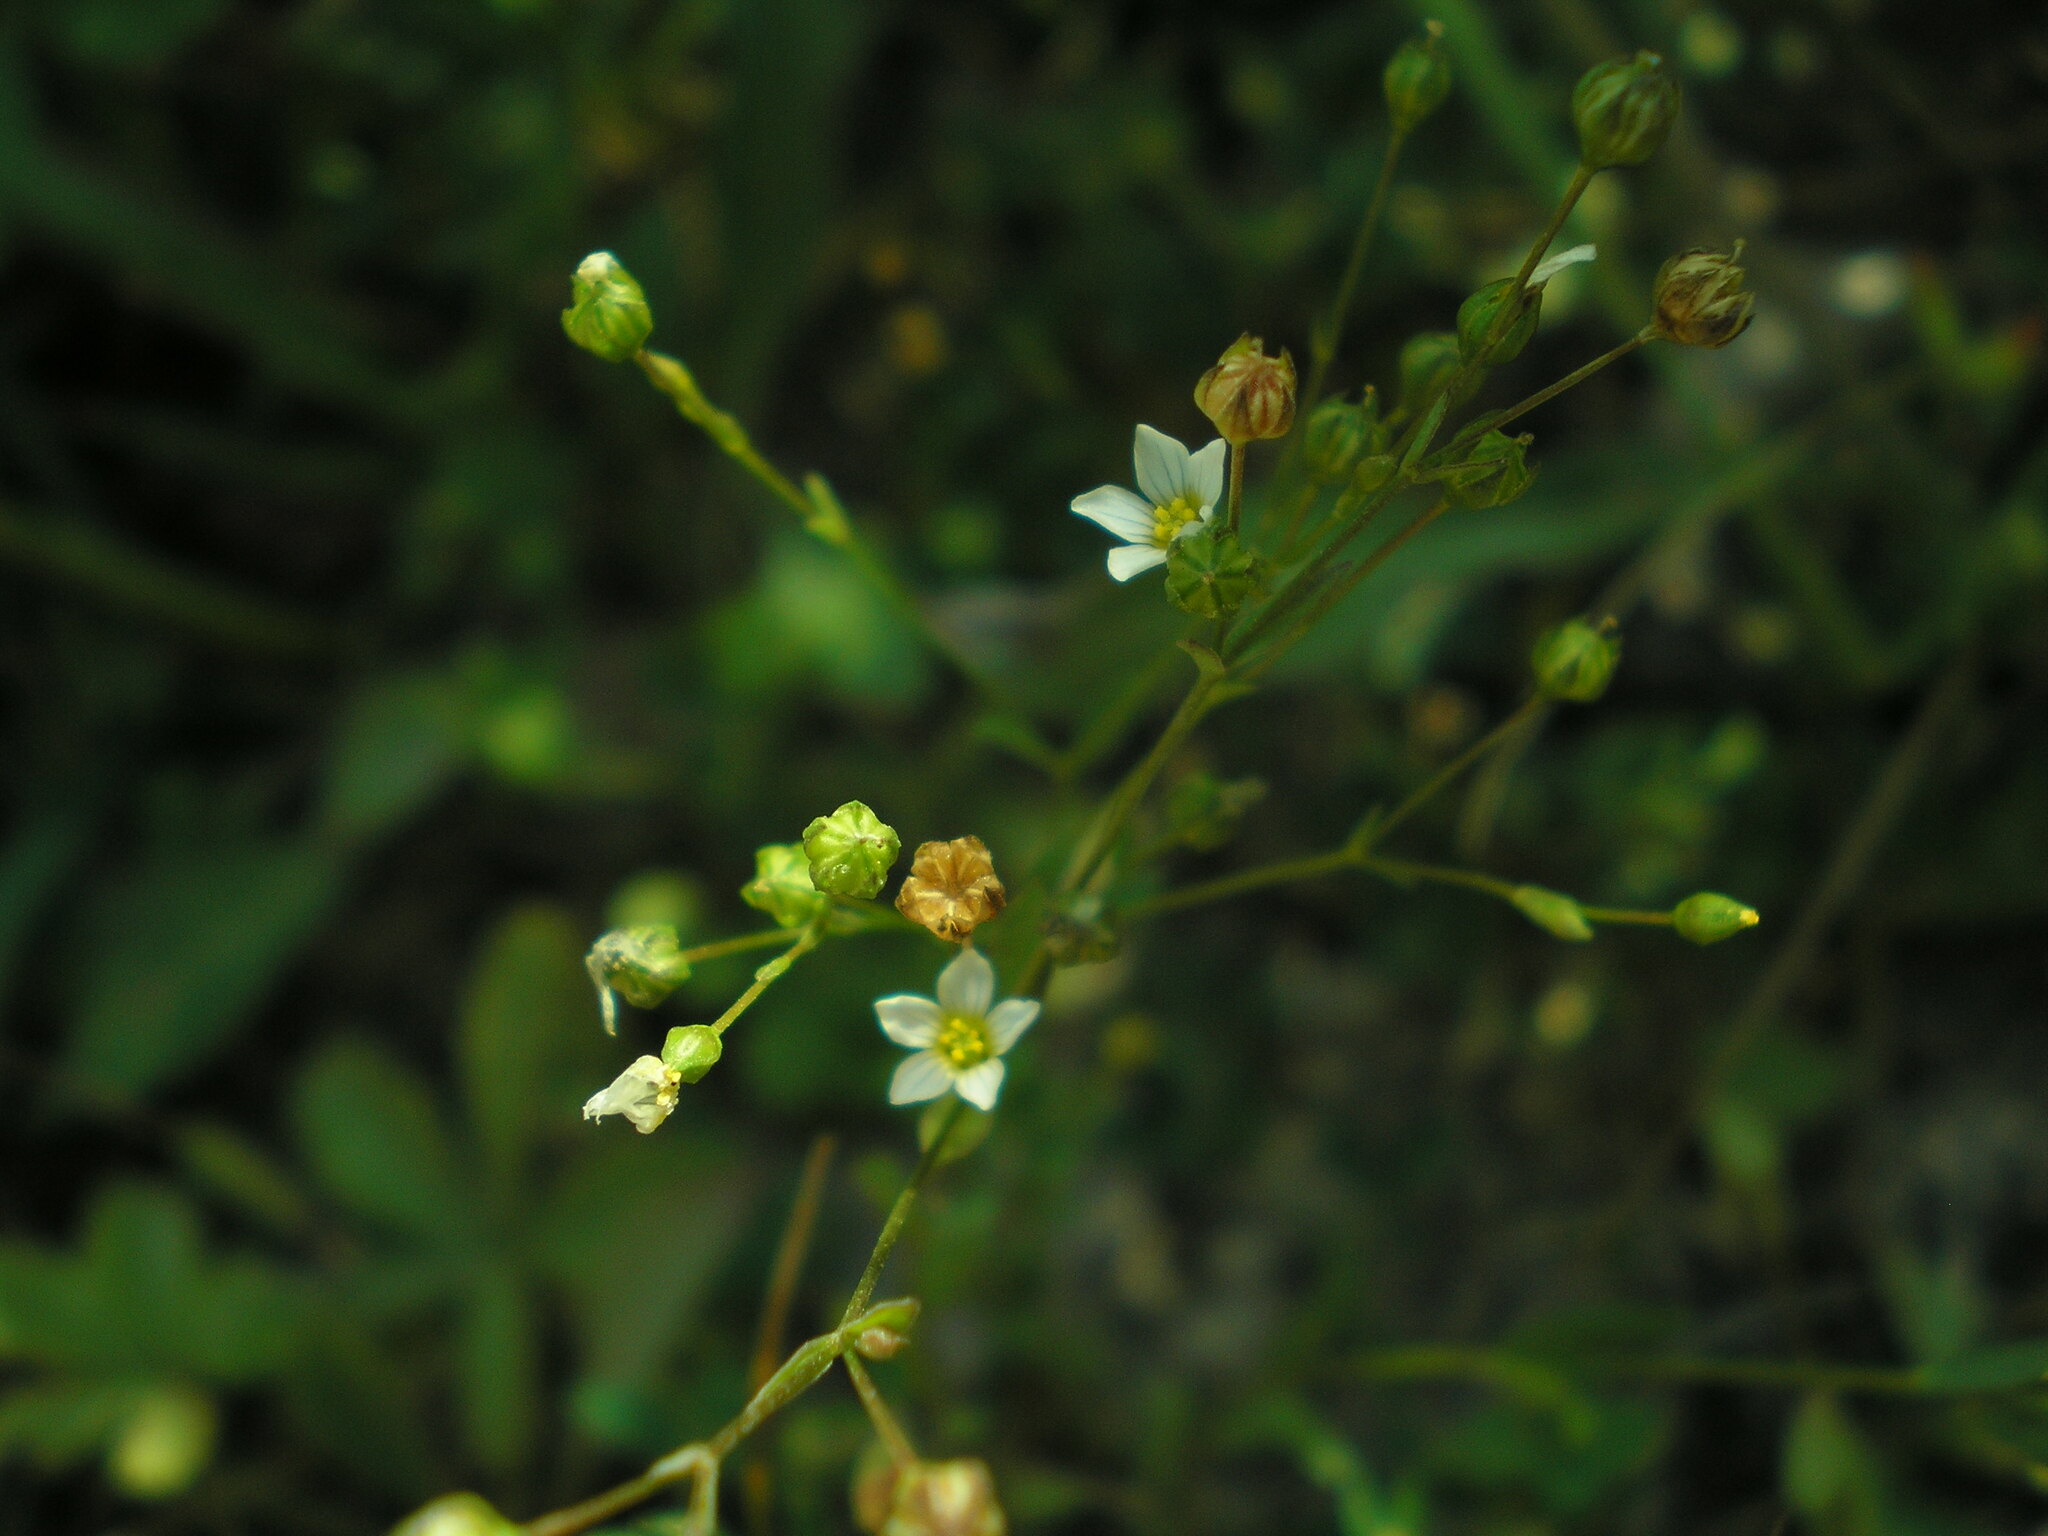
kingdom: Plantae
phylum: Tracheophyta
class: Magnoliopsida
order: Malpighiales
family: Linaceae
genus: Linum
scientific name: Linum catharticum
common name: Fairy flax
